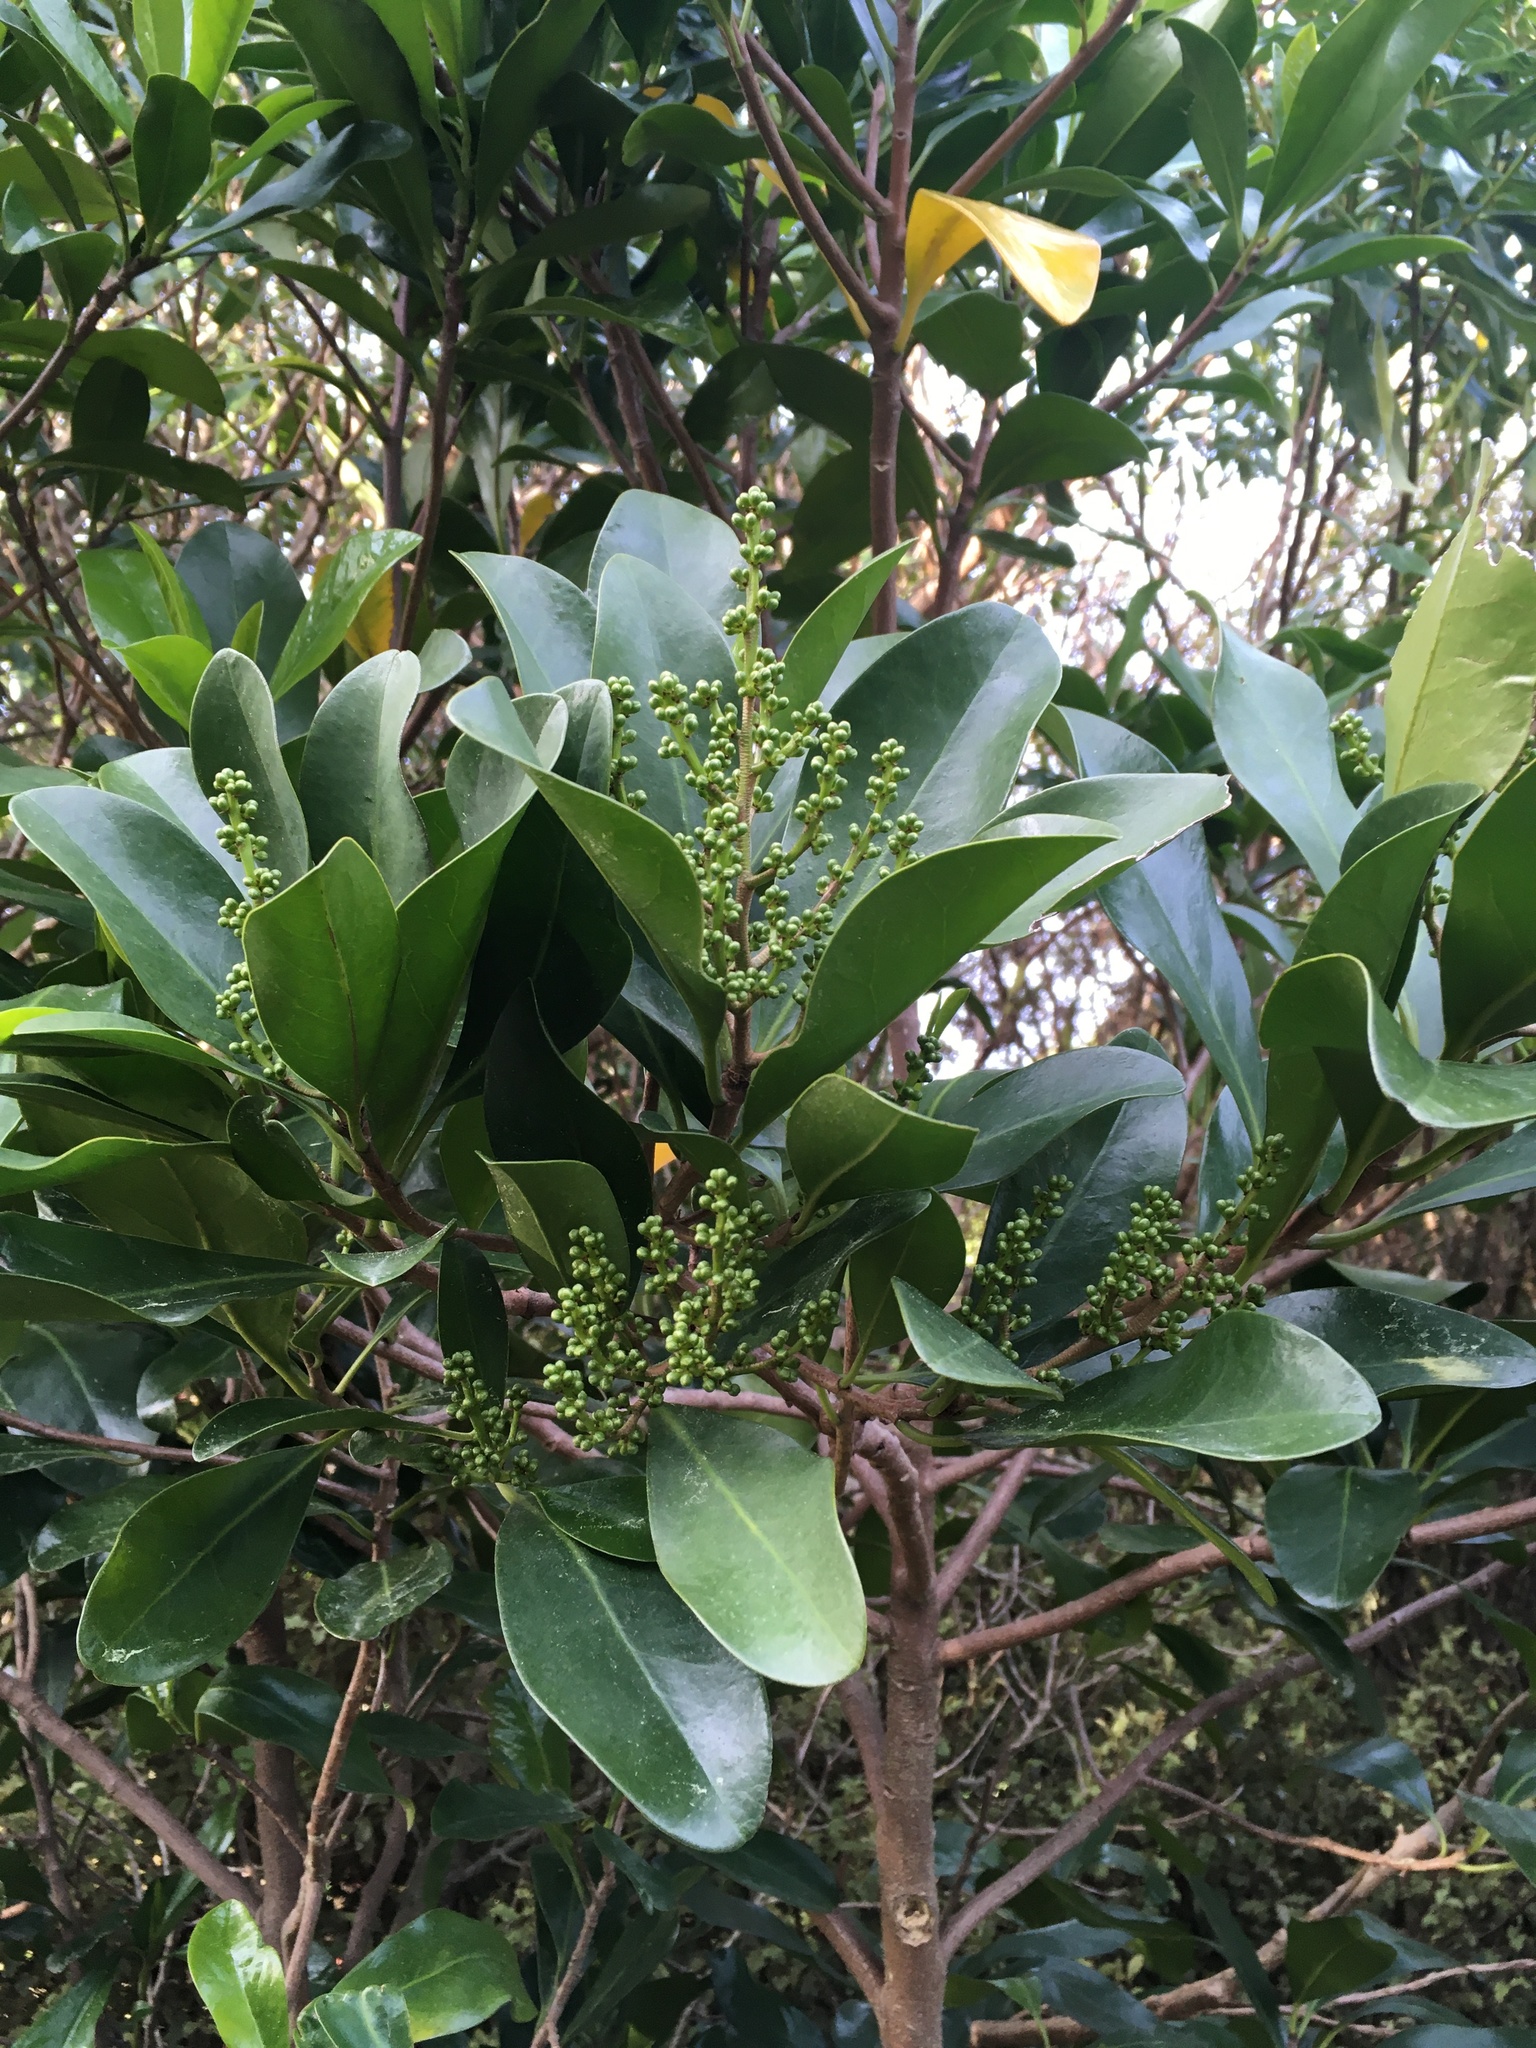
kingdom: Plantae
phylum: Tracheophyta
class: Magnoliopsida
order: Cucurbitales
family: Corynocarpaceae
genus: Corynocarpus
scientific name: Corynocarpus laevigatus
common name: New zealand laurel
